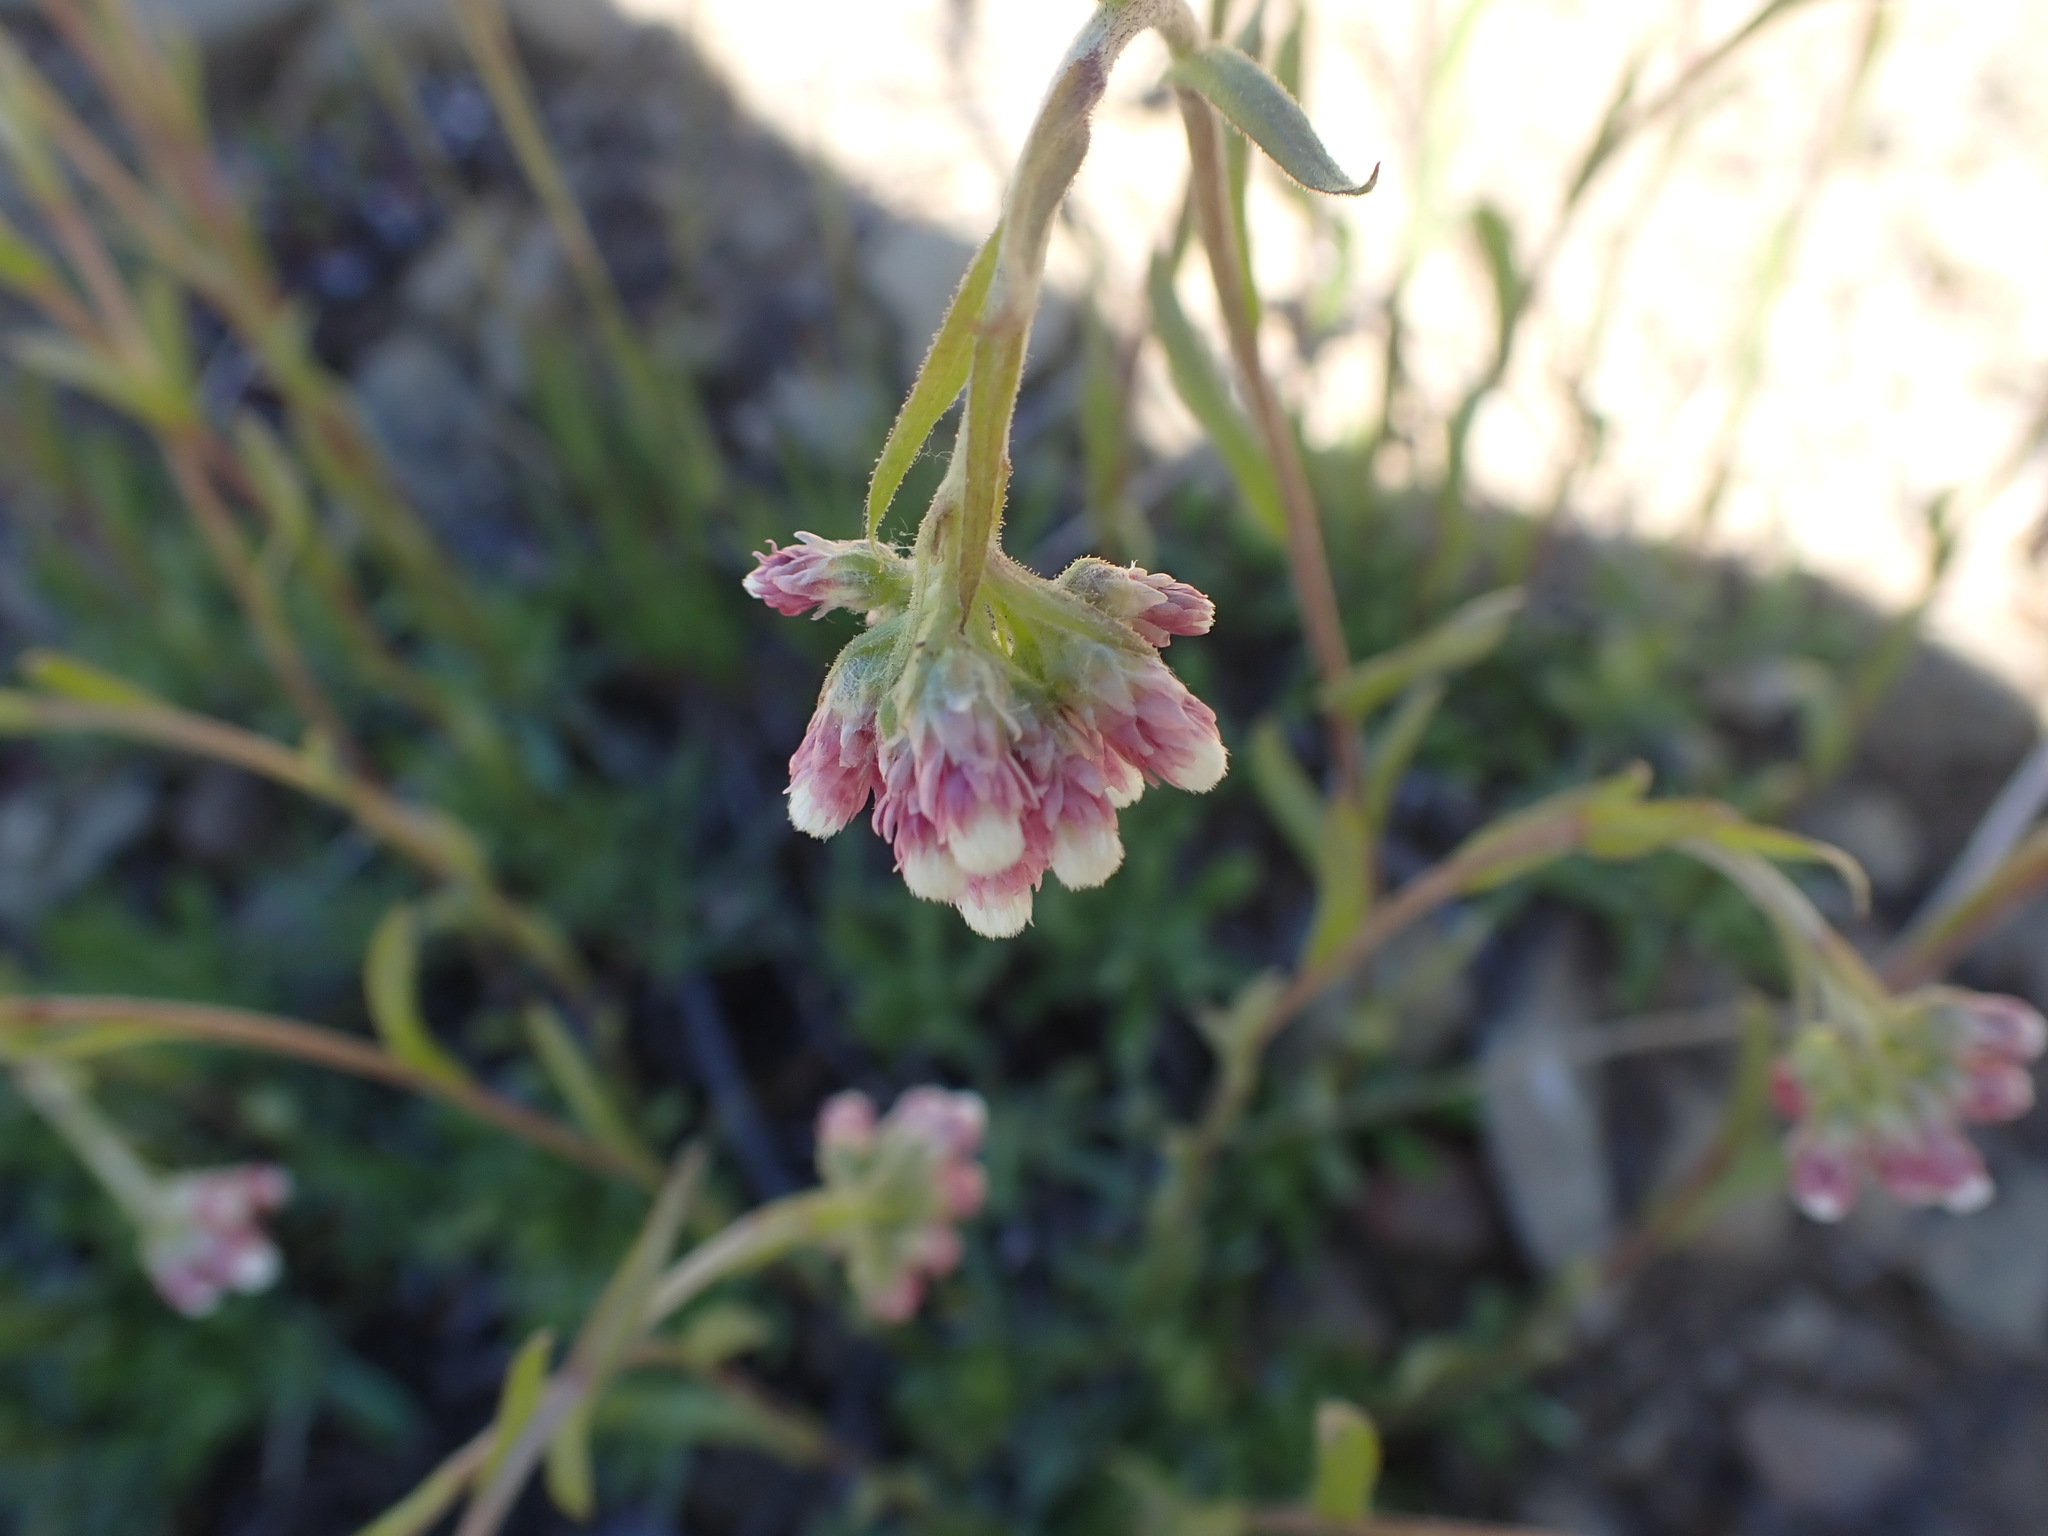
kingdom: Plantae
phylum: Tracheophyta
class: Magnoliopsida
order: Asterales
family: Asteraceae
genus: Antennaria
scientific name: Antennaria rosea
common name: Rosy pussytoes
